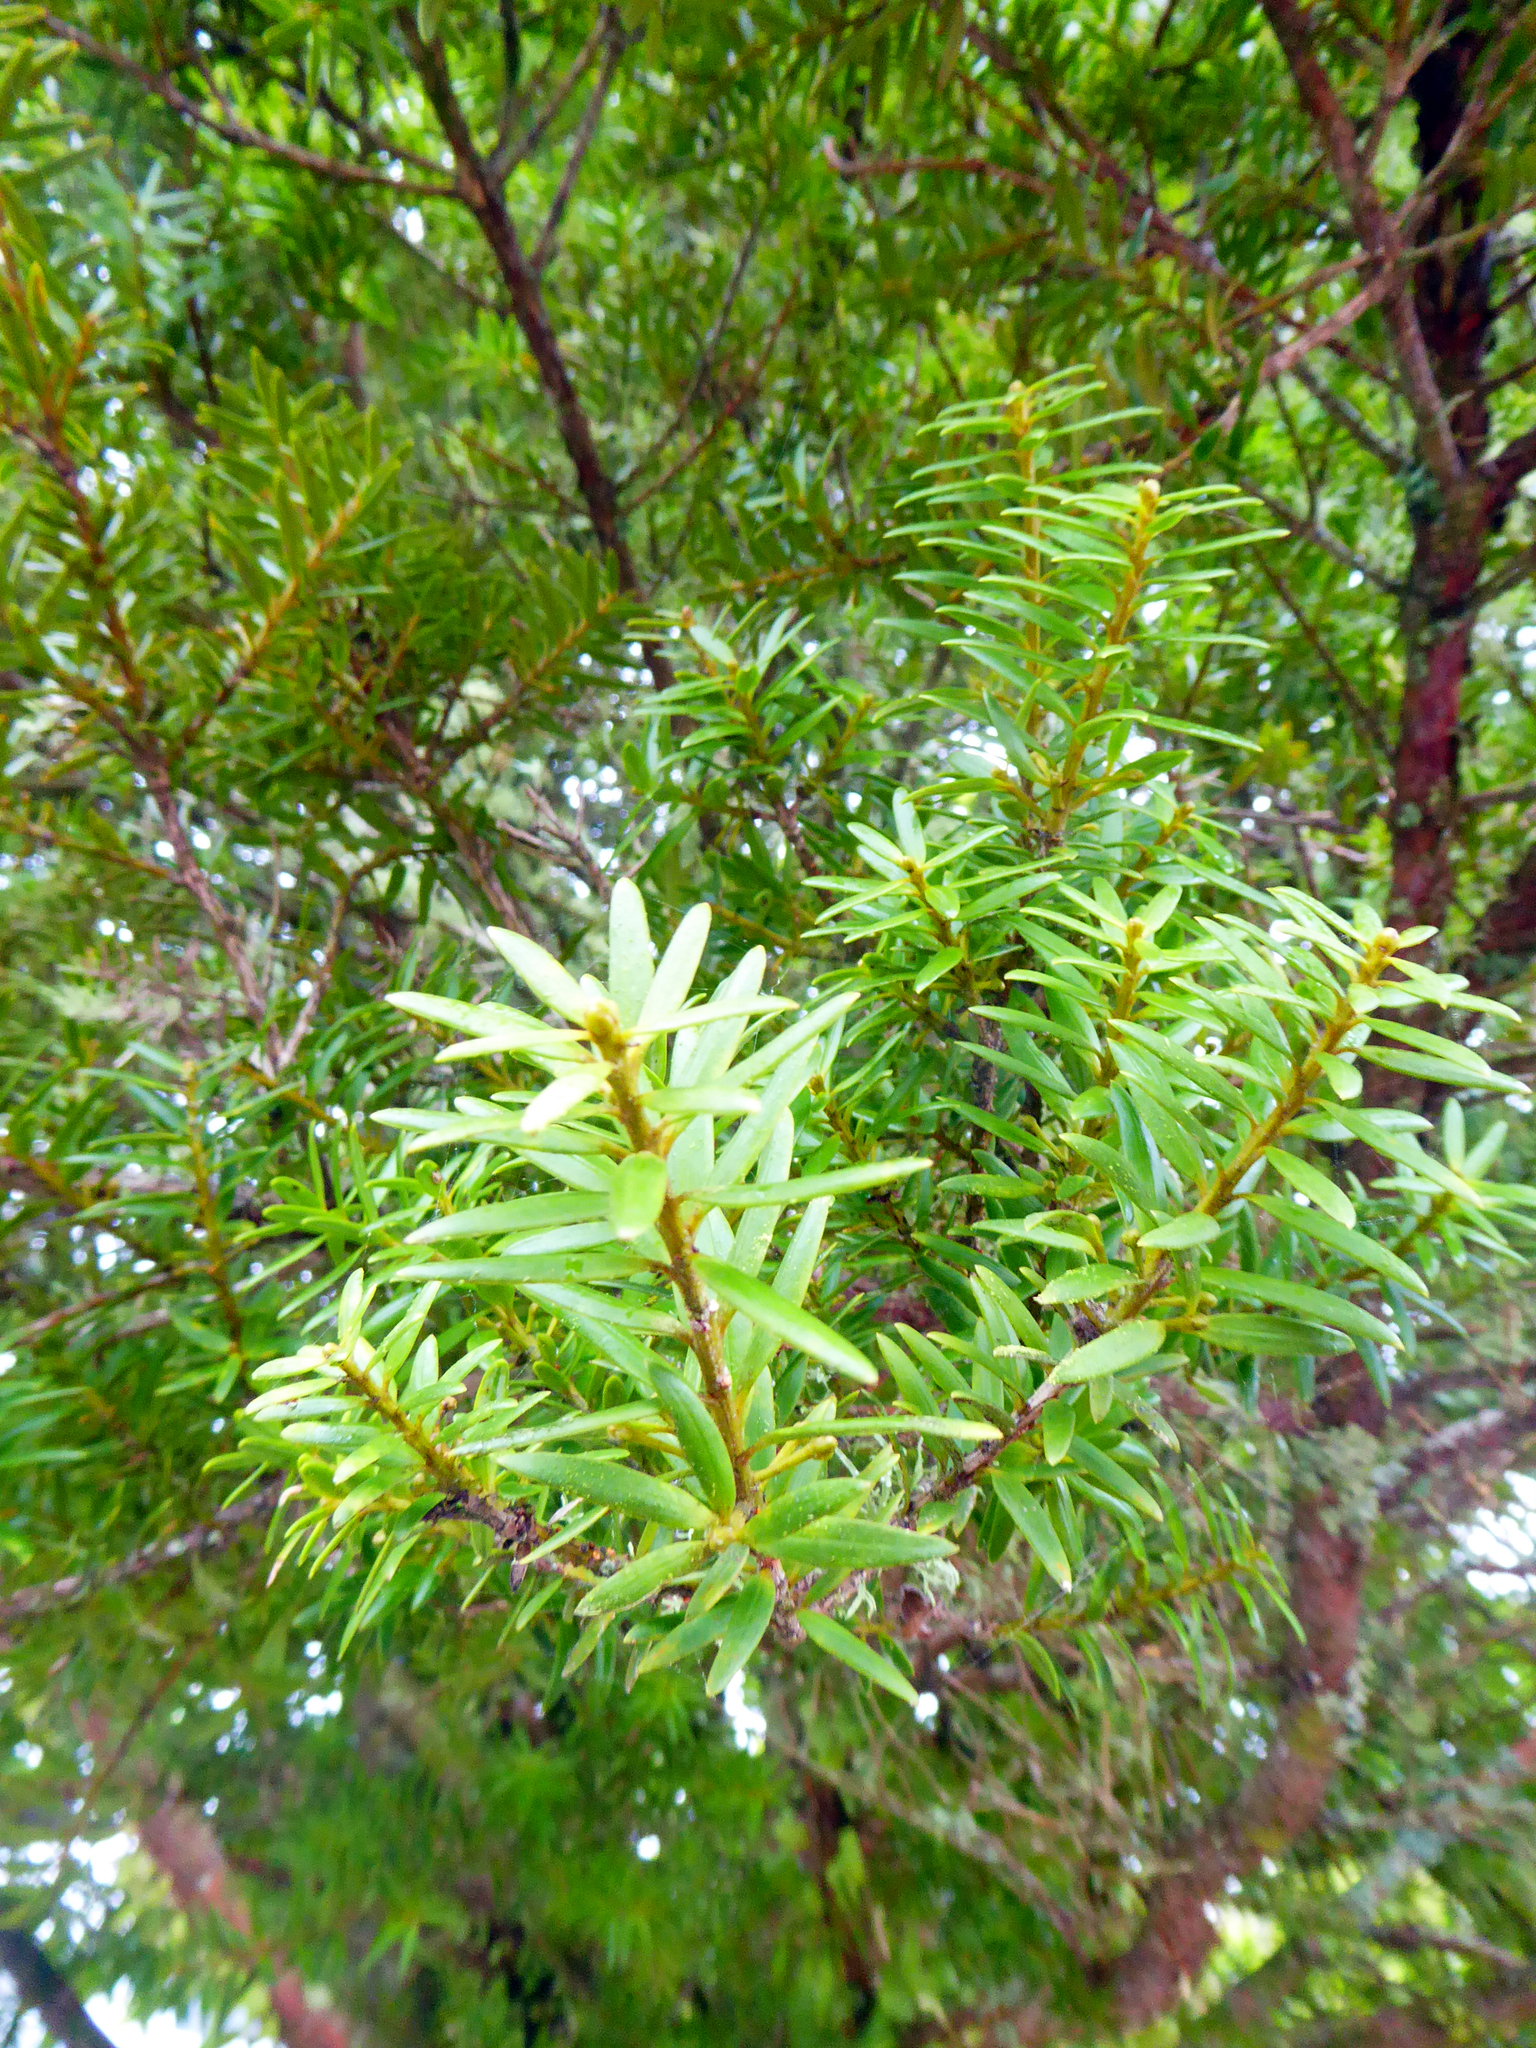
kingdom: Plantae
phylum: Tracheophyta
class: Pinopsida
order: Pinales
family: Podocarpaceae
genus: Podocarpus
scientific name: Podocarpus laetus
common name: Hall's totara
